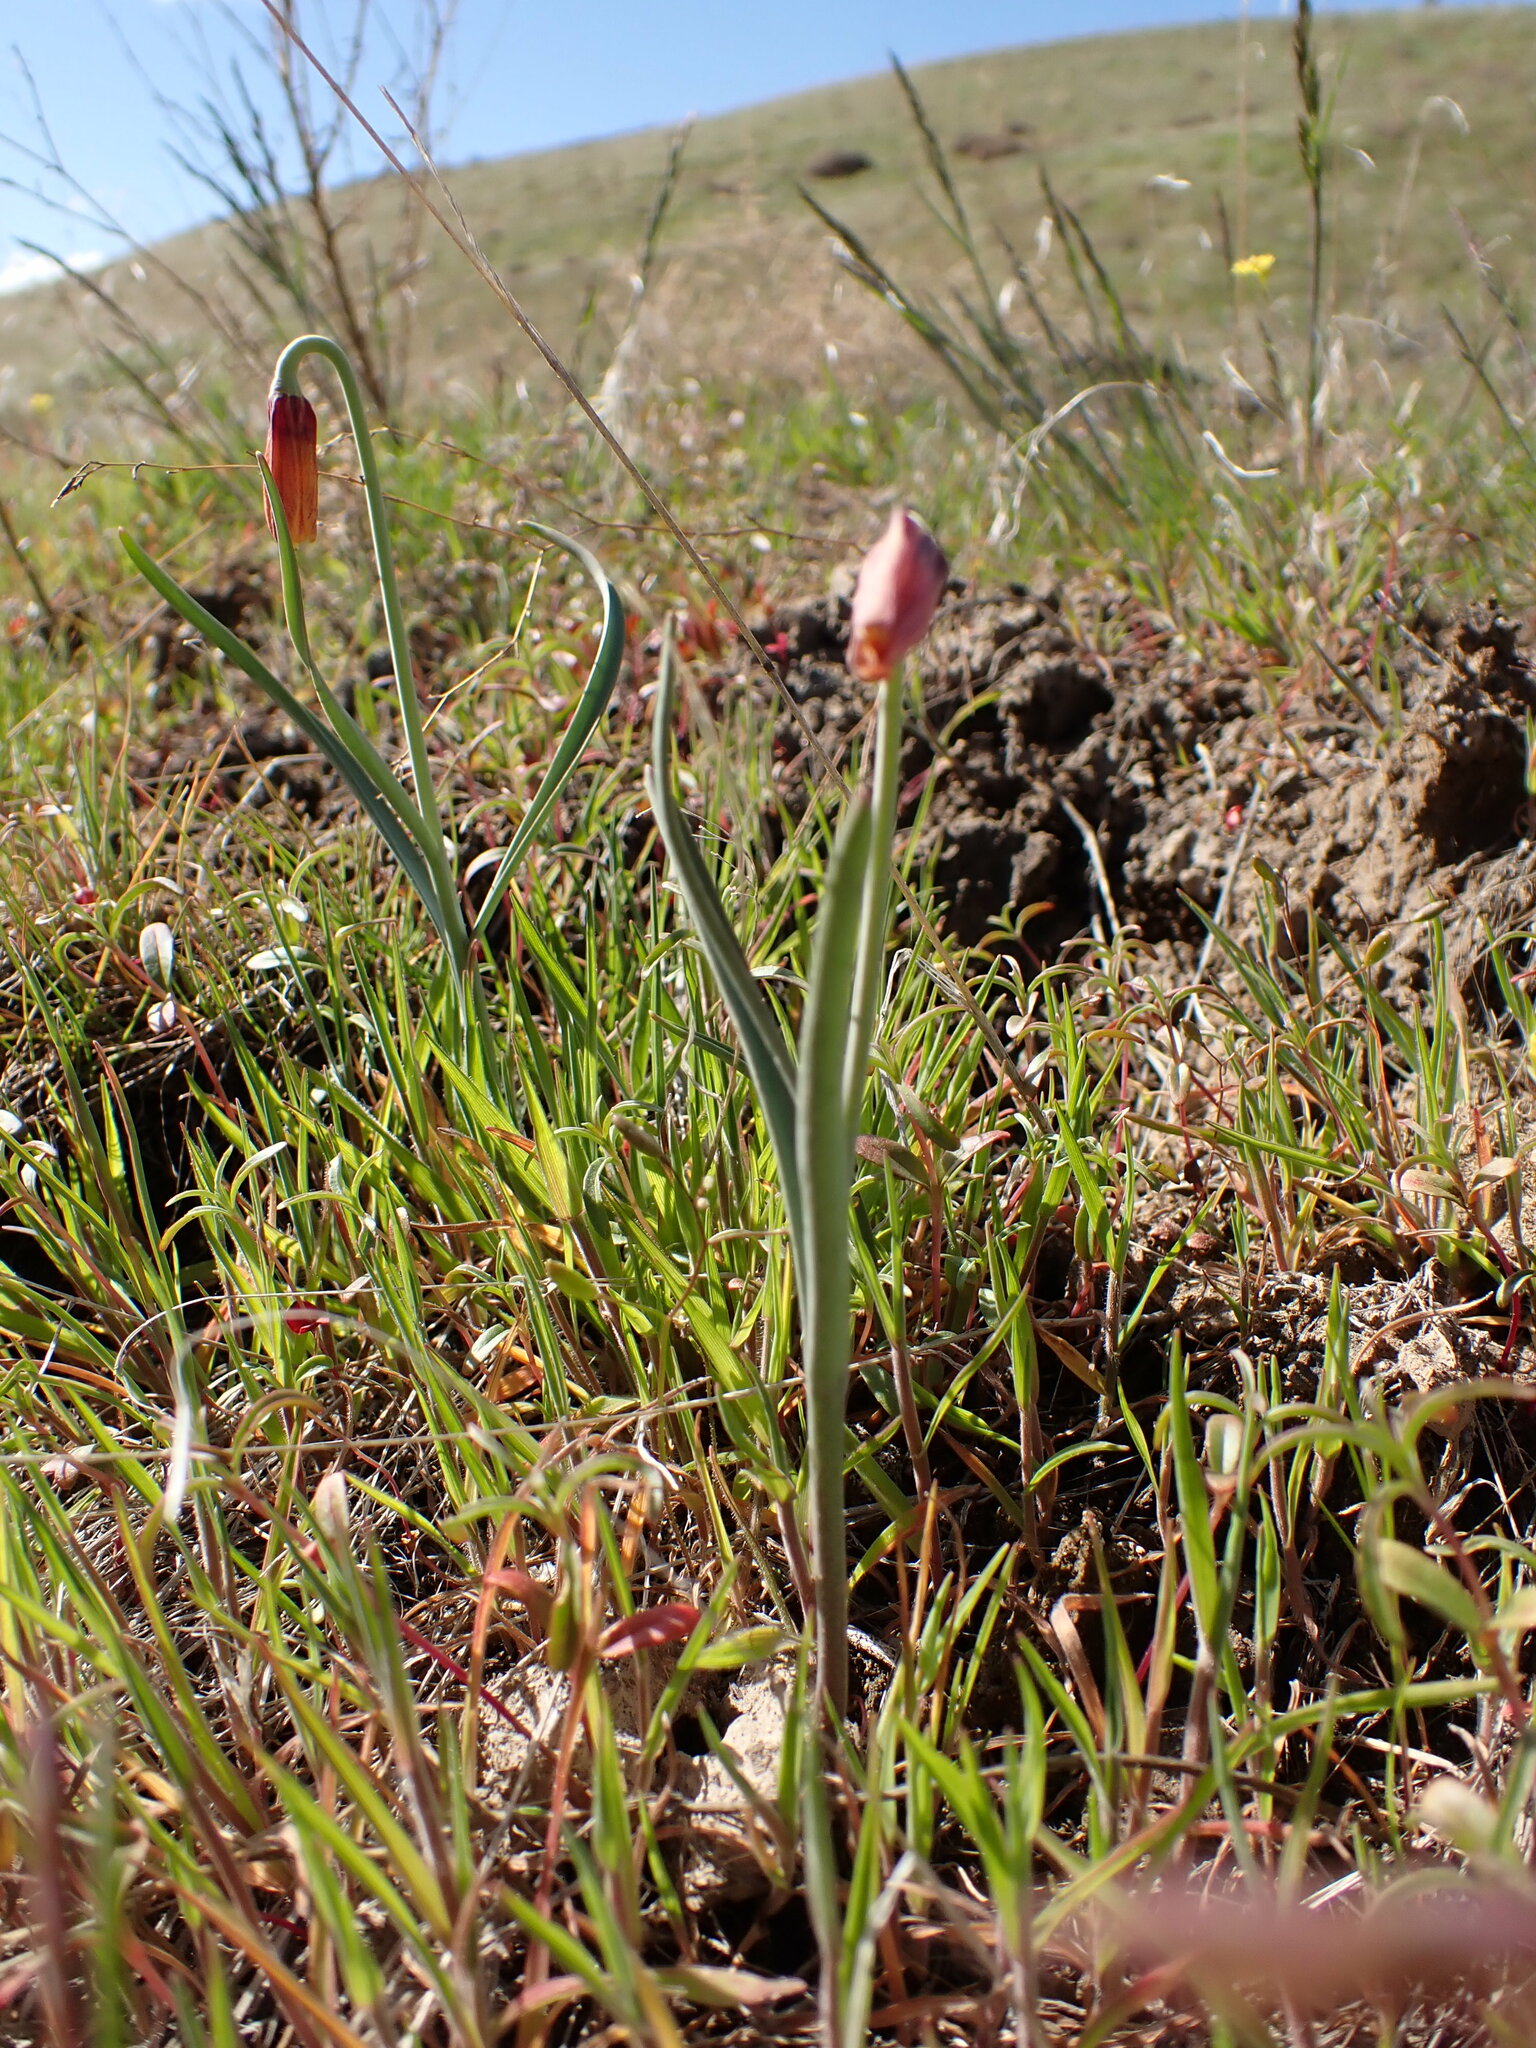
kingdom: Plantae
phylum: Tracheophyta
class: Liliopsida
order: Liliales
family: Liliaceae
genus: Fritillaria
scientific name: Fritillaria pudica
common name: Yellow fritillary
